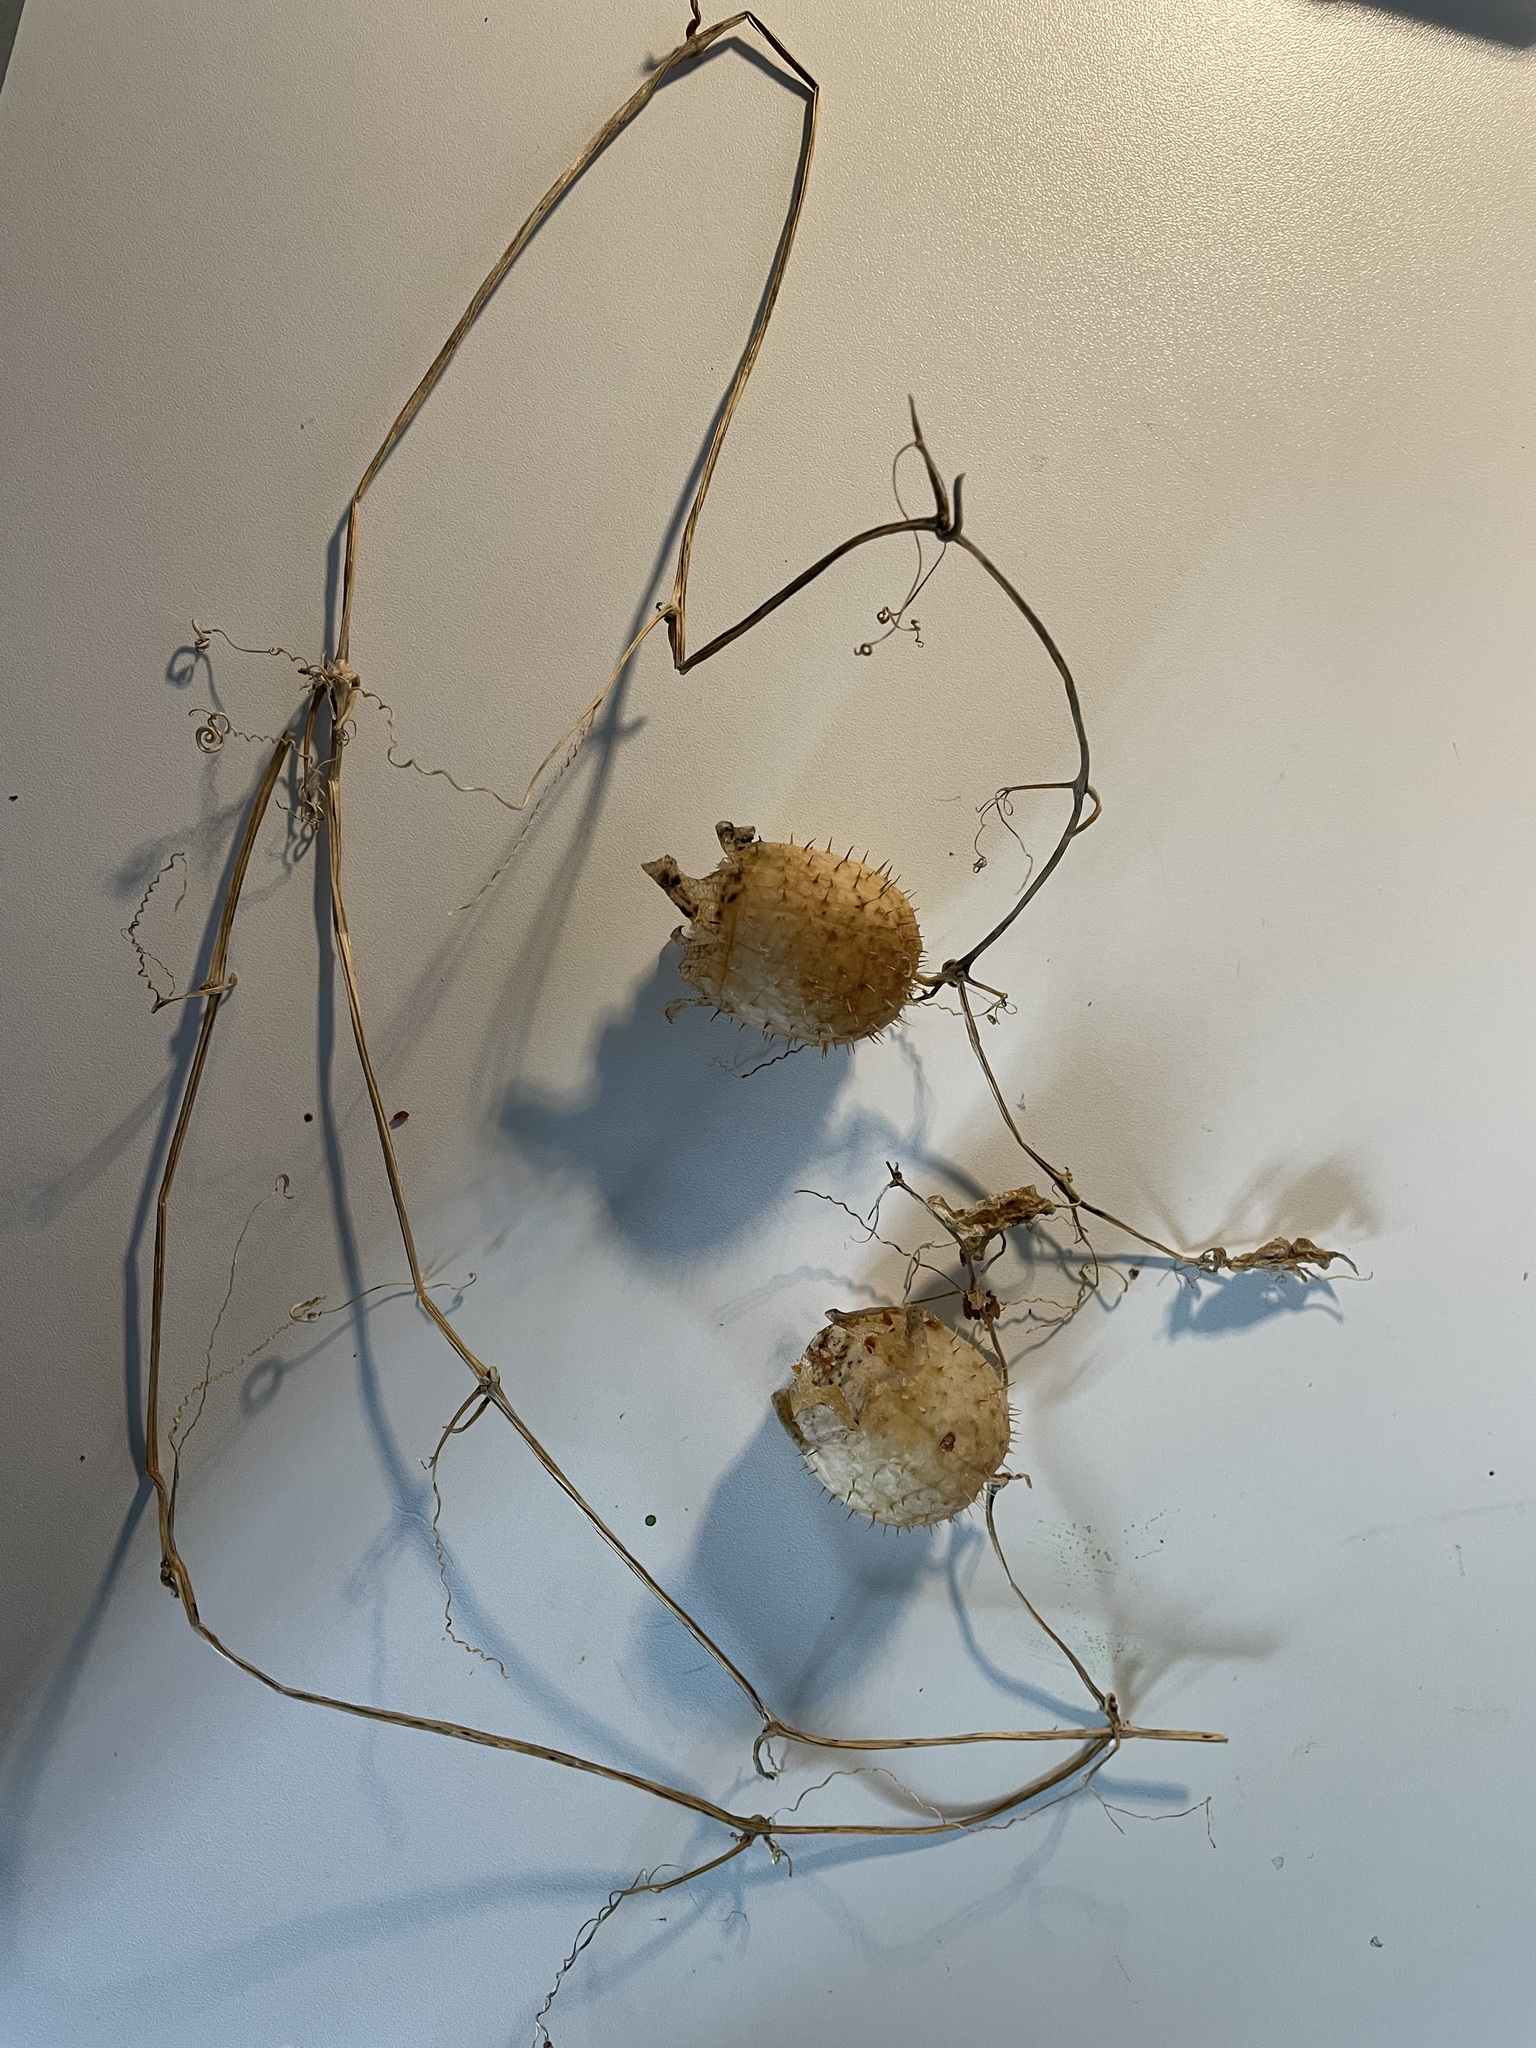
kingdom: Plantae
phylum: Tracheophyta
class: Magnoliopsida
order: Cucurbitales
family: Cucurbitaceae
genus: Echinocystis
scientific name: Echinocystis lobata
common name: Wild cucumber
